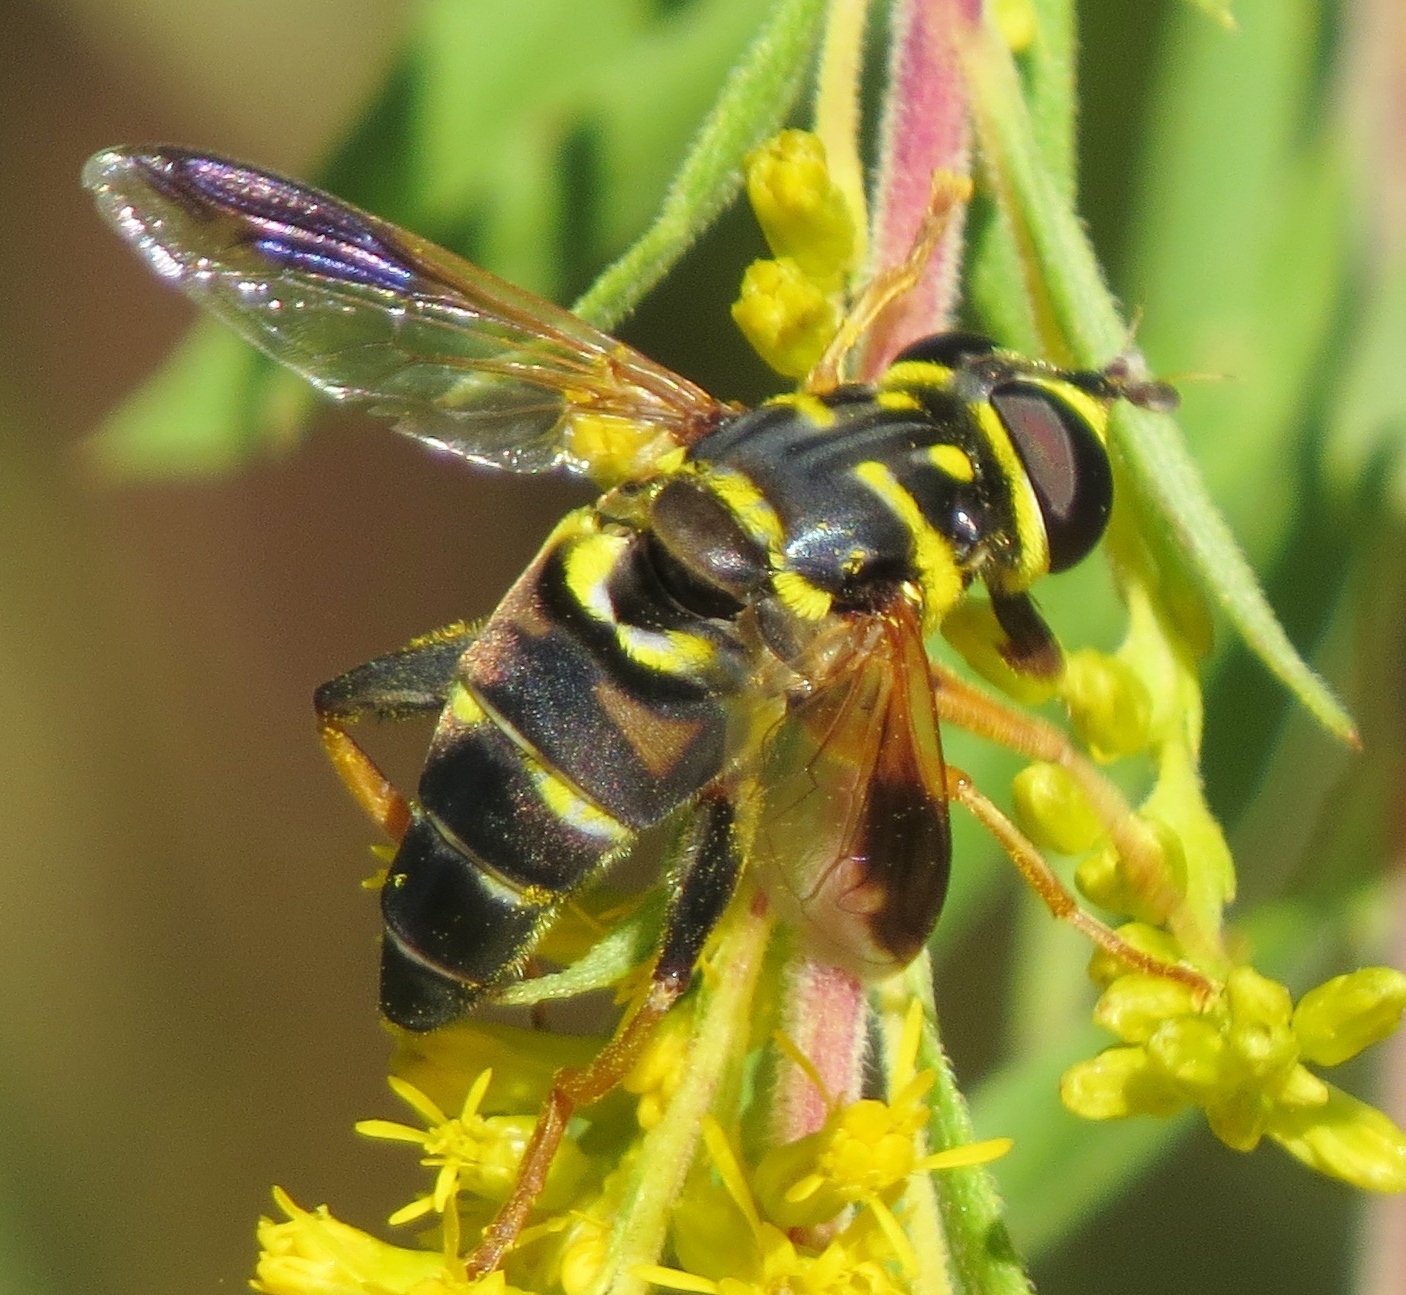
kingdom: Animalia
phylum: Arthropoda
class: Insecta
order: Diptera
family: Syrphidae
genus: Meromacrus
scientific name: Meromacrus acutus
